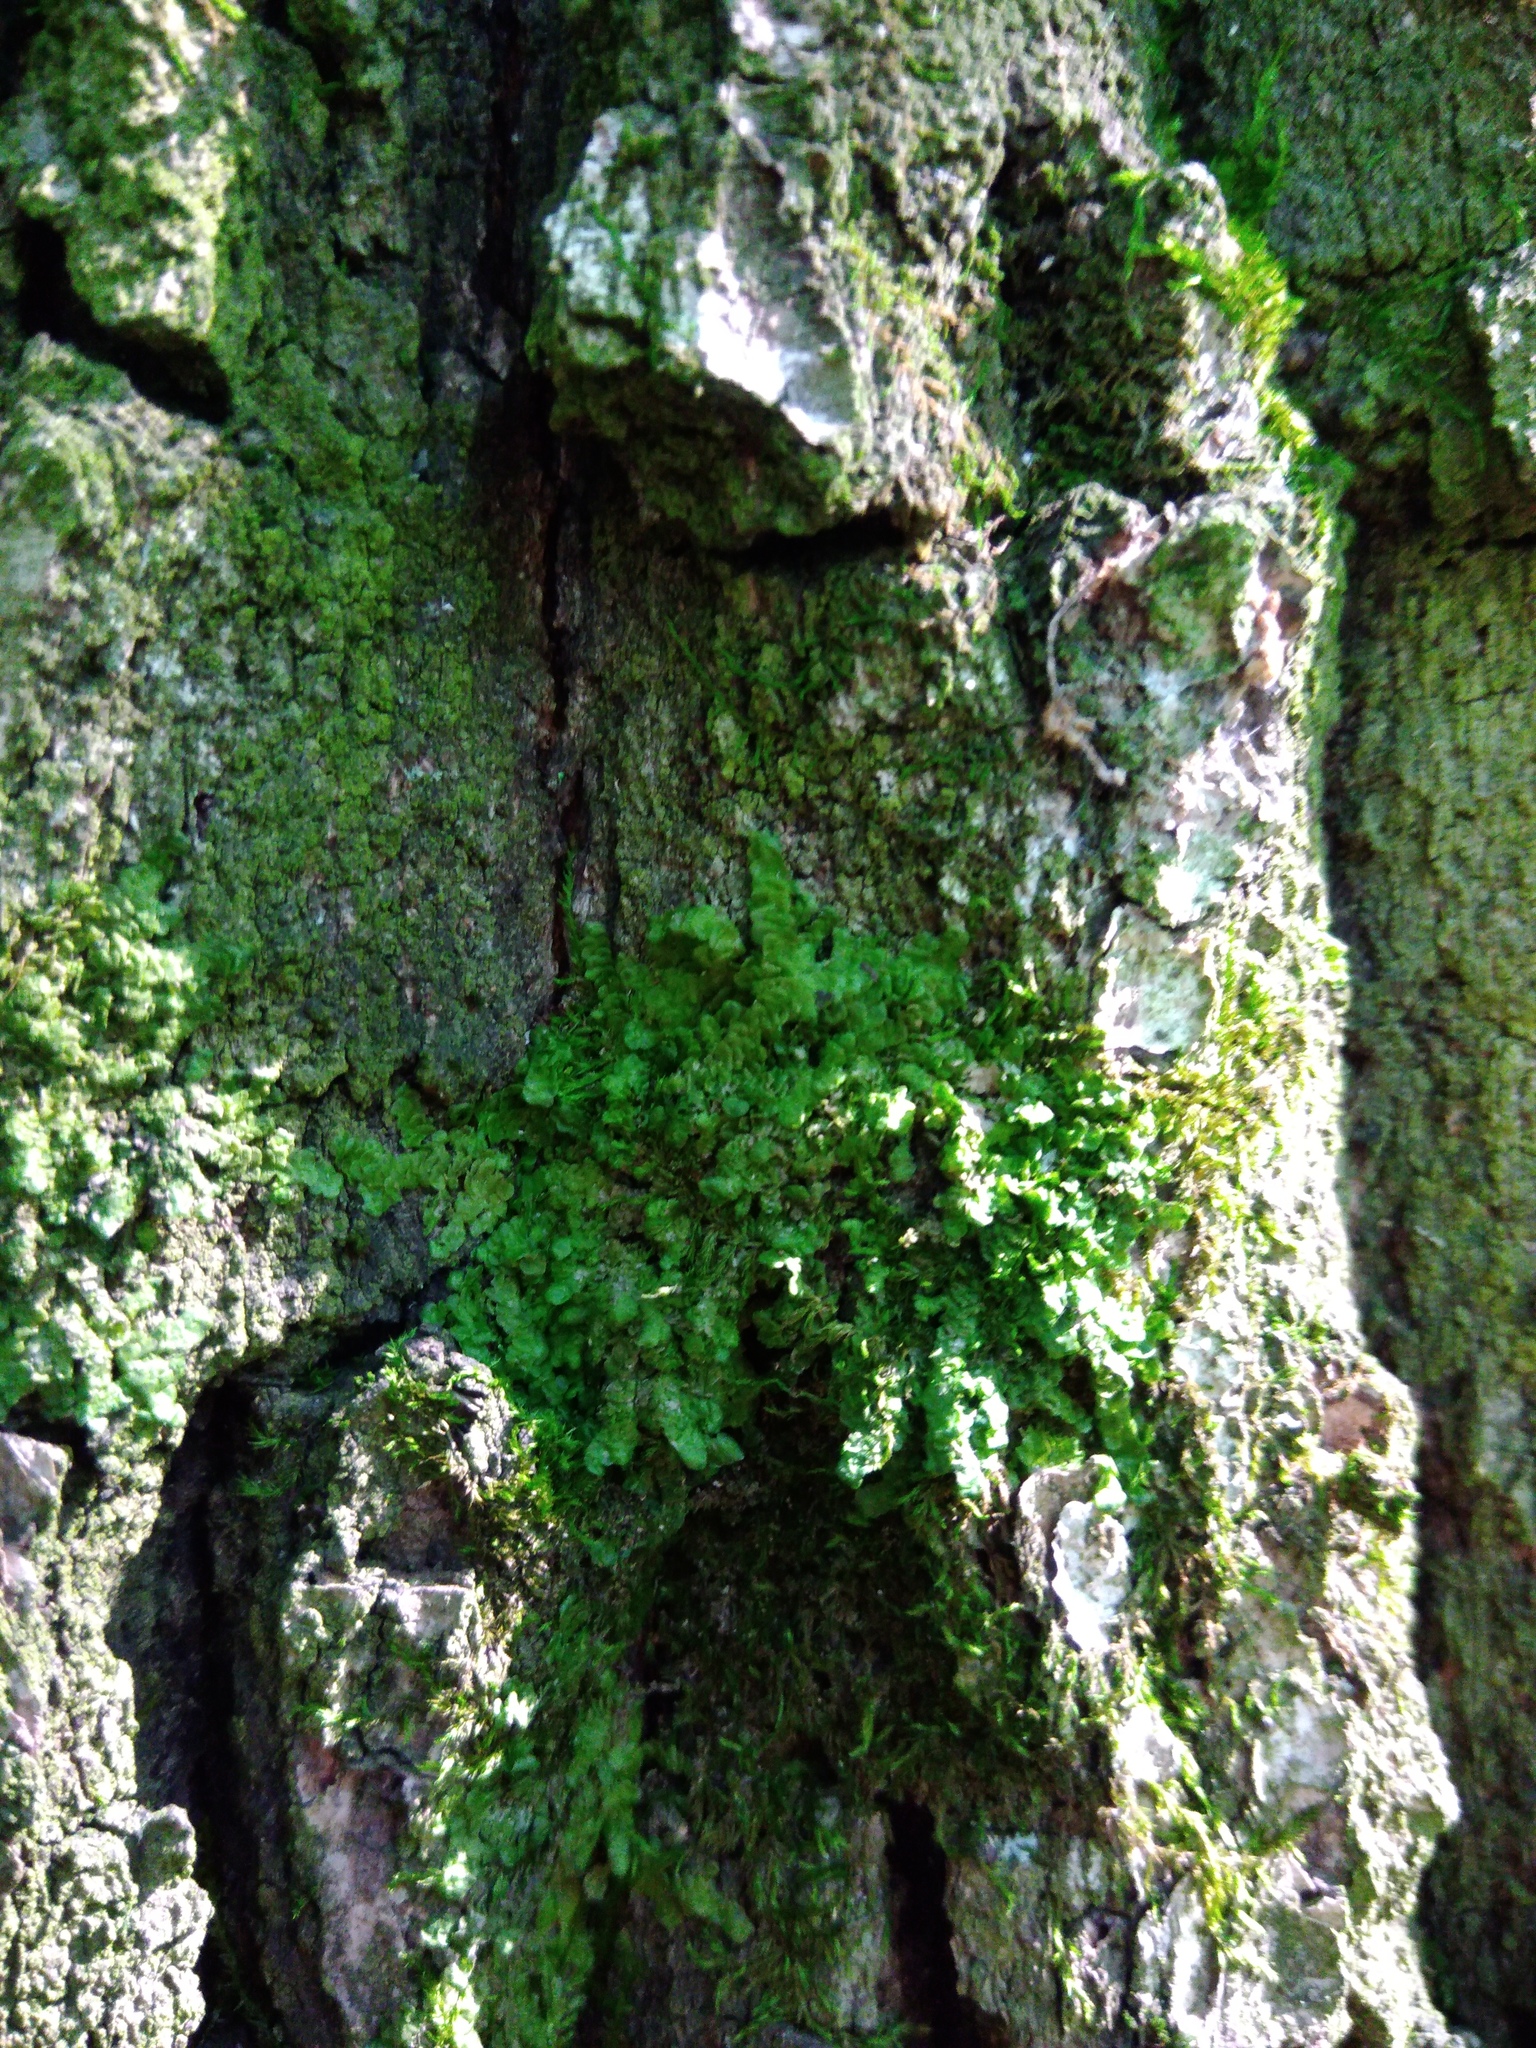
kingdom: Plantae
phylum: Marchantiophyta
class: Jungermanniopsida
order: Porellales
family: Radulaceae
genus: Radula
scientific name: Radula complanata
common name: Flat-leaved scalewort
